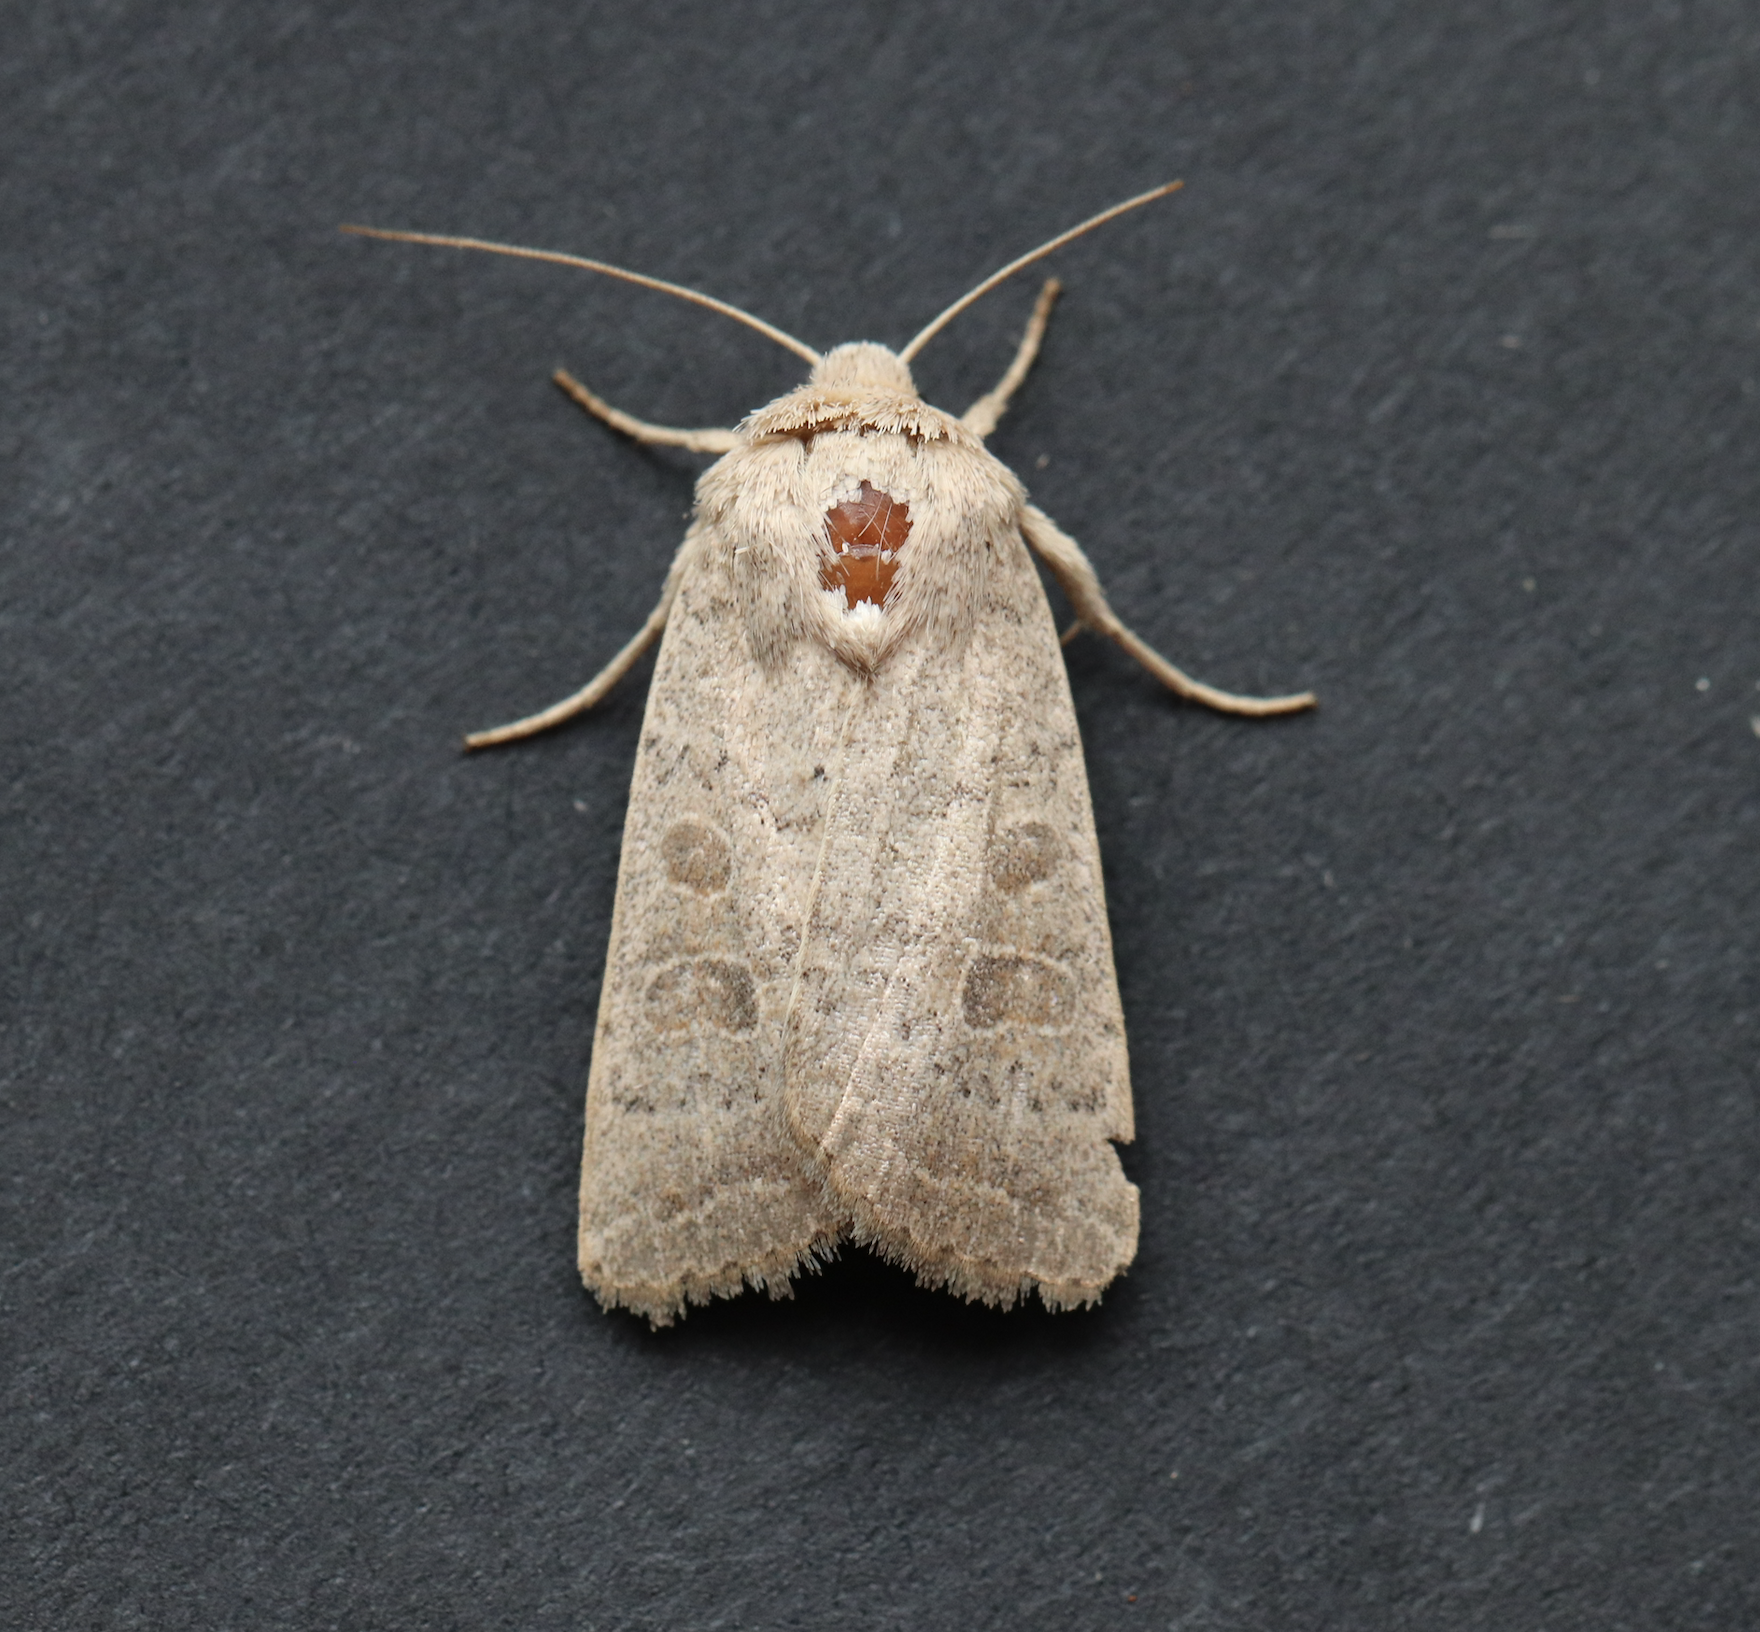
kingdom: Animalia
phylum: Arthropoda
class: Insecta
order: Lepidoptera
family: Noctuidae
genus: Hoplodrina
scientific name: Hoplodrina ambigua
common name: Vine's rustic
